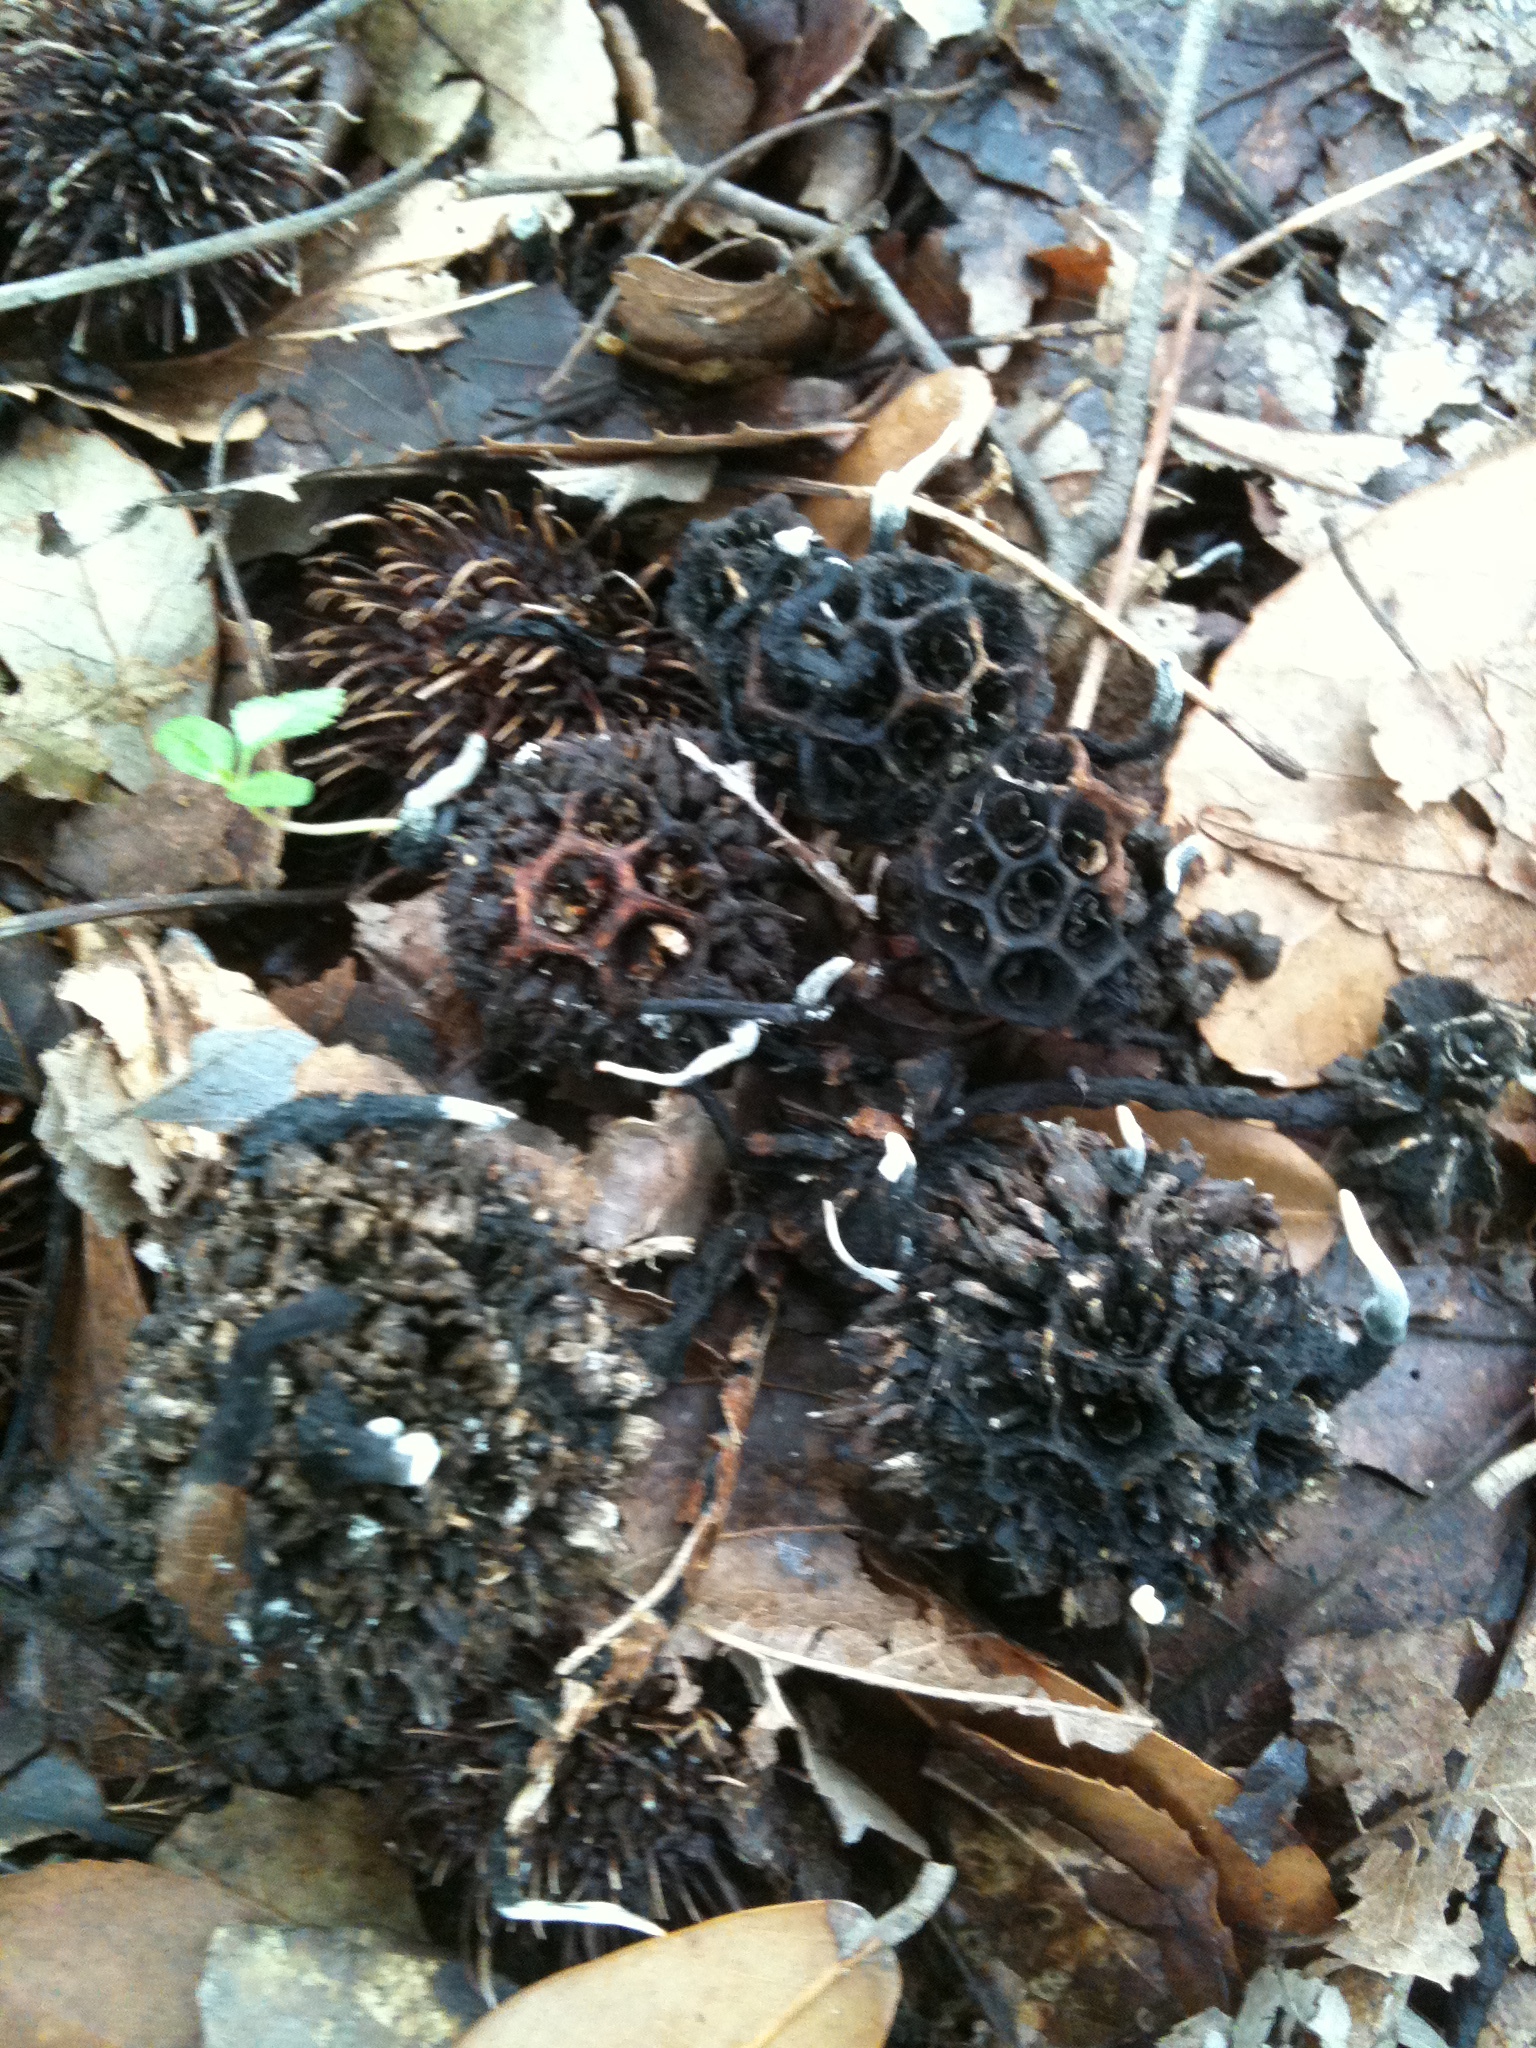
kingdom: Fungi
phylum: Ascomycota
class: Sordariomycetes
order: Xylariales
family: Xylariaceae
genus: Xylaria
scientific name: Xylaria liquidambaris
